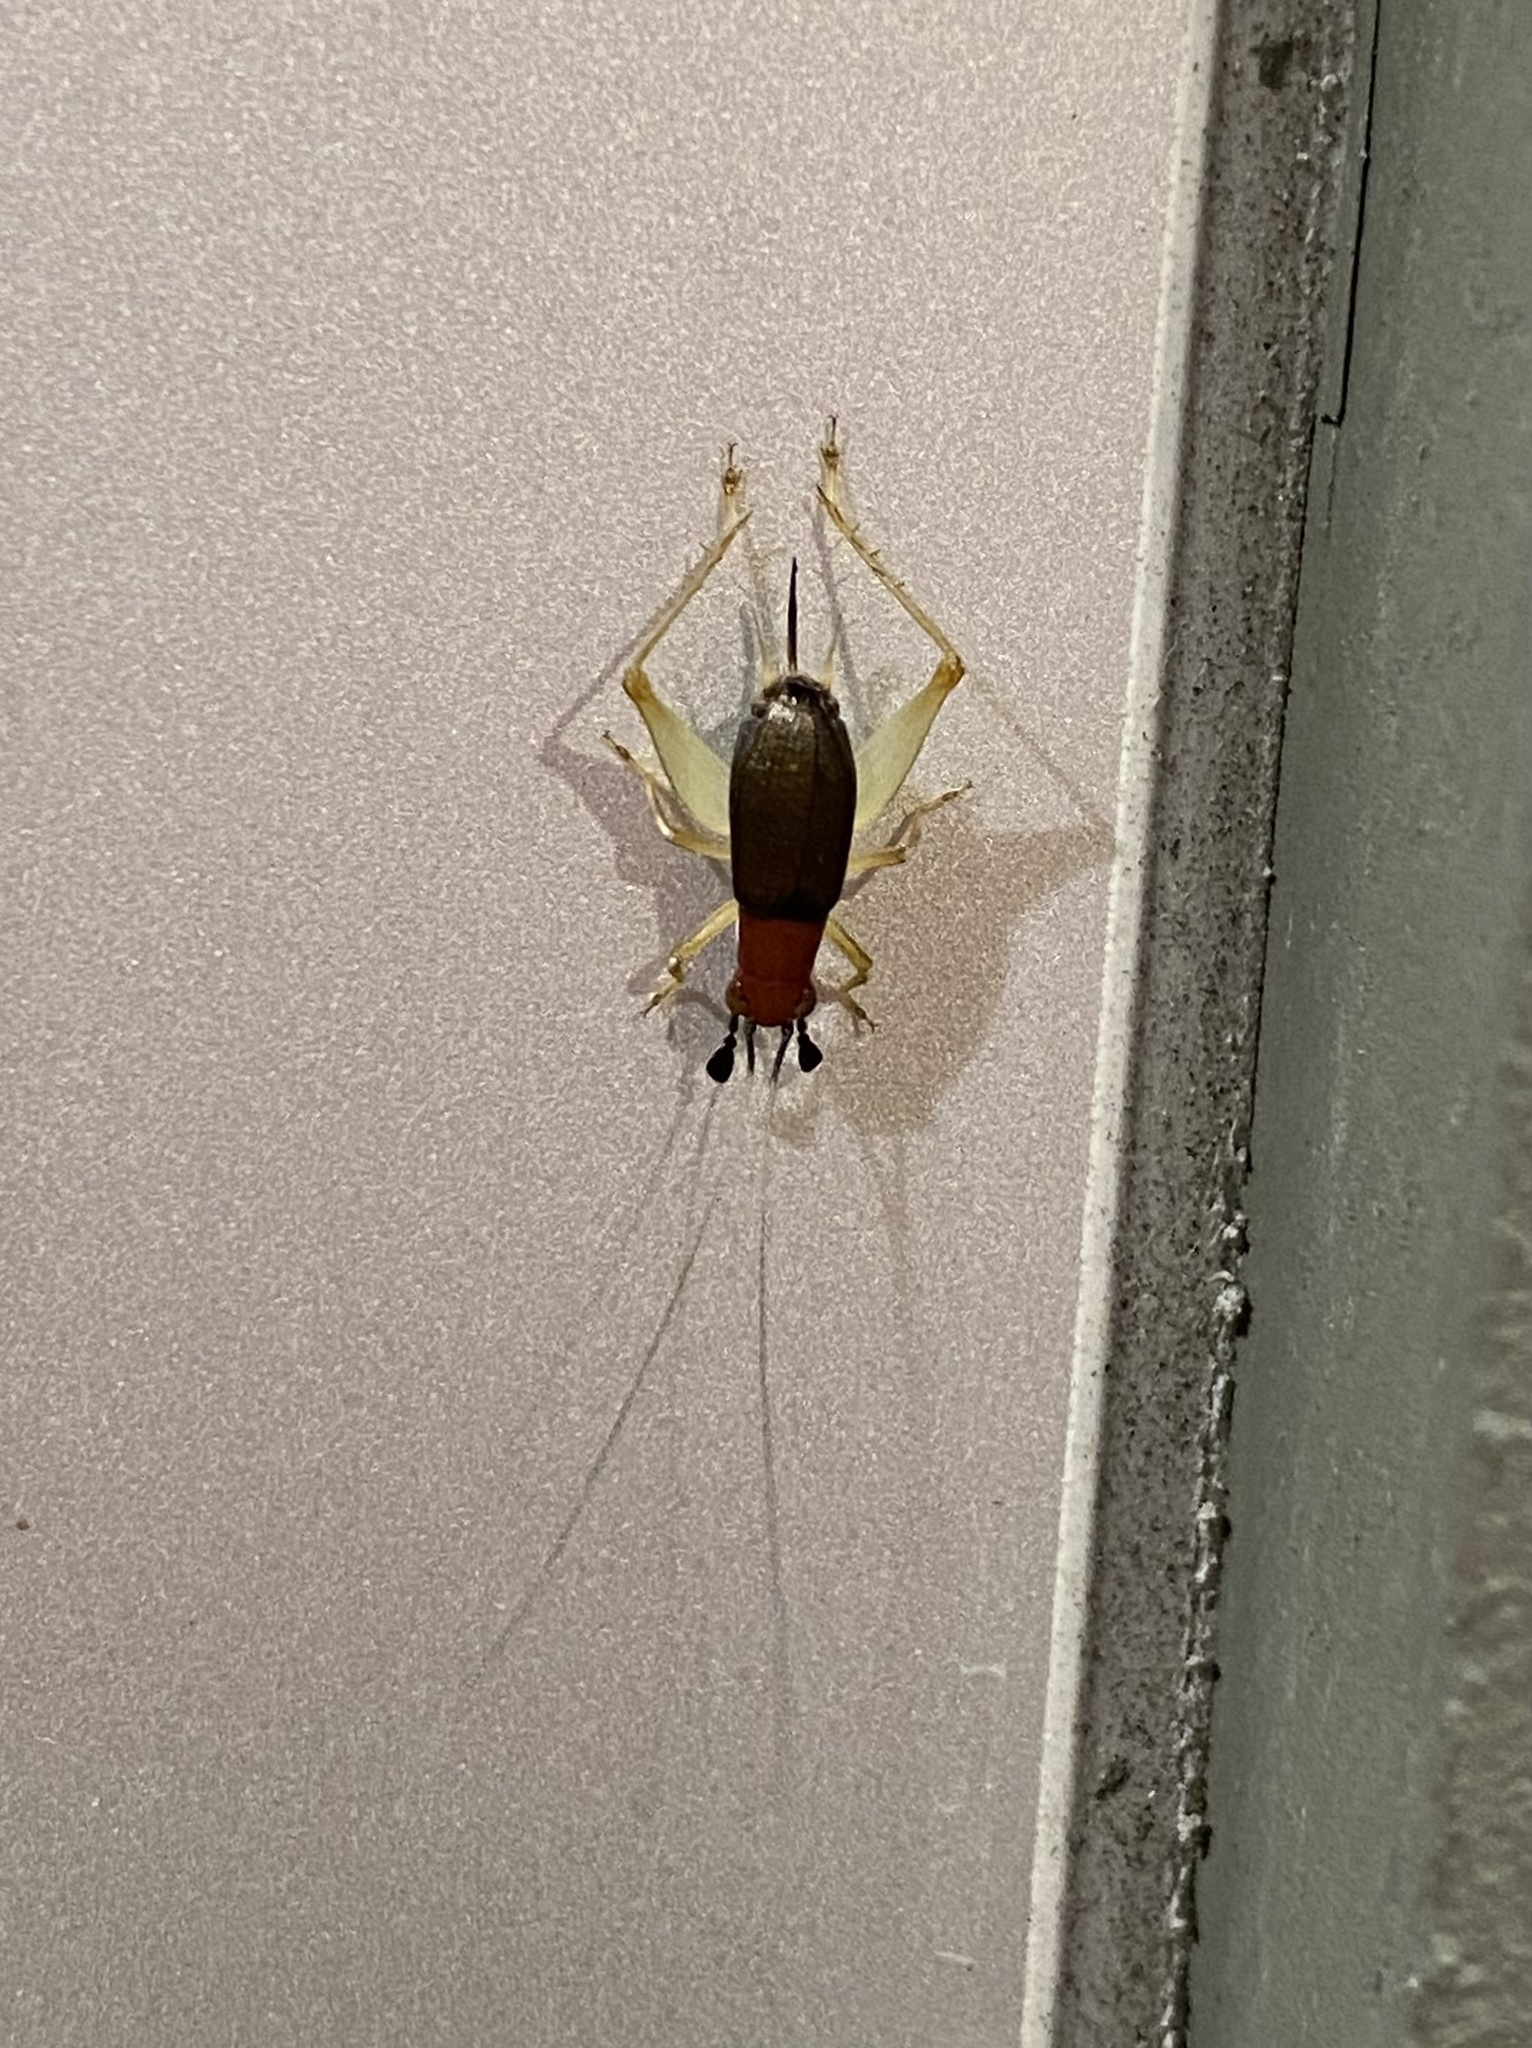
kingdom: Animalia
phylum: Arthropoda
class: Insecta
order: Orthoptera
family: Trigonidiidae
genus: Phyllopalpus
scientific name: Phyllopalpus pulchellus
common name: Handsome trig
